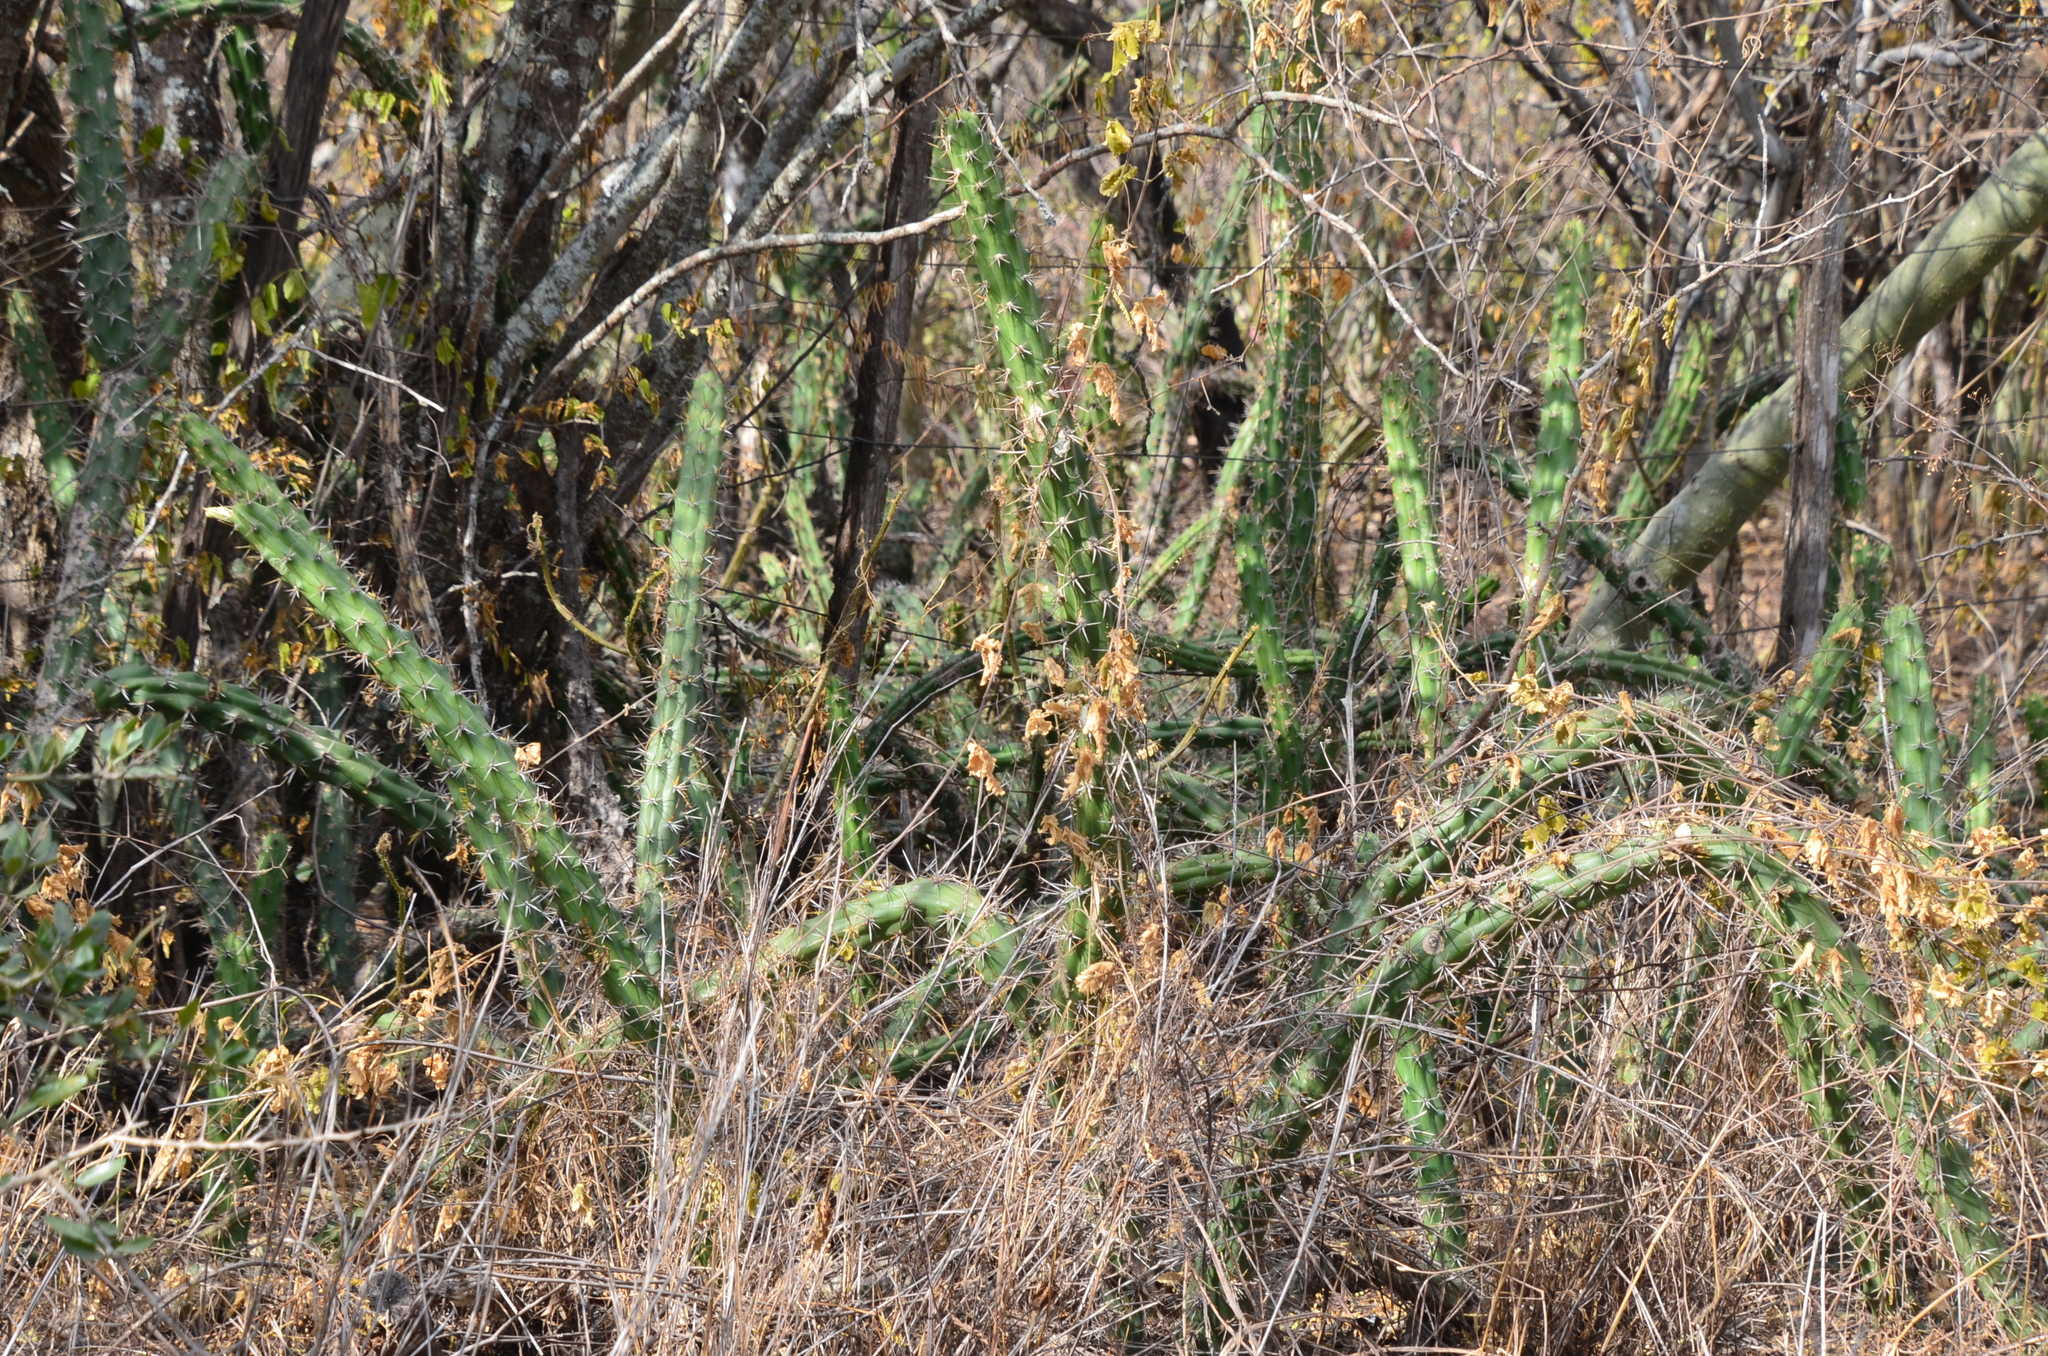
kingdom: Plantae
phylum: Tracheophyta
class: Magnoliopsida
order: Caryophyllales
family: Cactaceae
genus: Harrisia
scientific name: Harrisia pomanensis
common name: Midnight-lady
